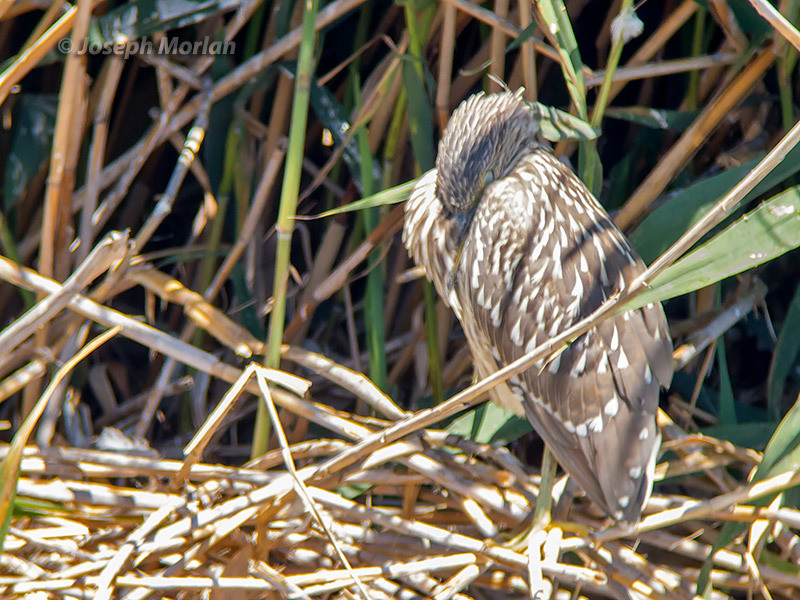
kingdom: Animalia
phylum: Chordata
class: Aves
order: Pelecaniformes
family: Ardeidae
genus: Nycticorax
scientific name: Nycticorax nycticorax
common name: Black-crowned night heron
